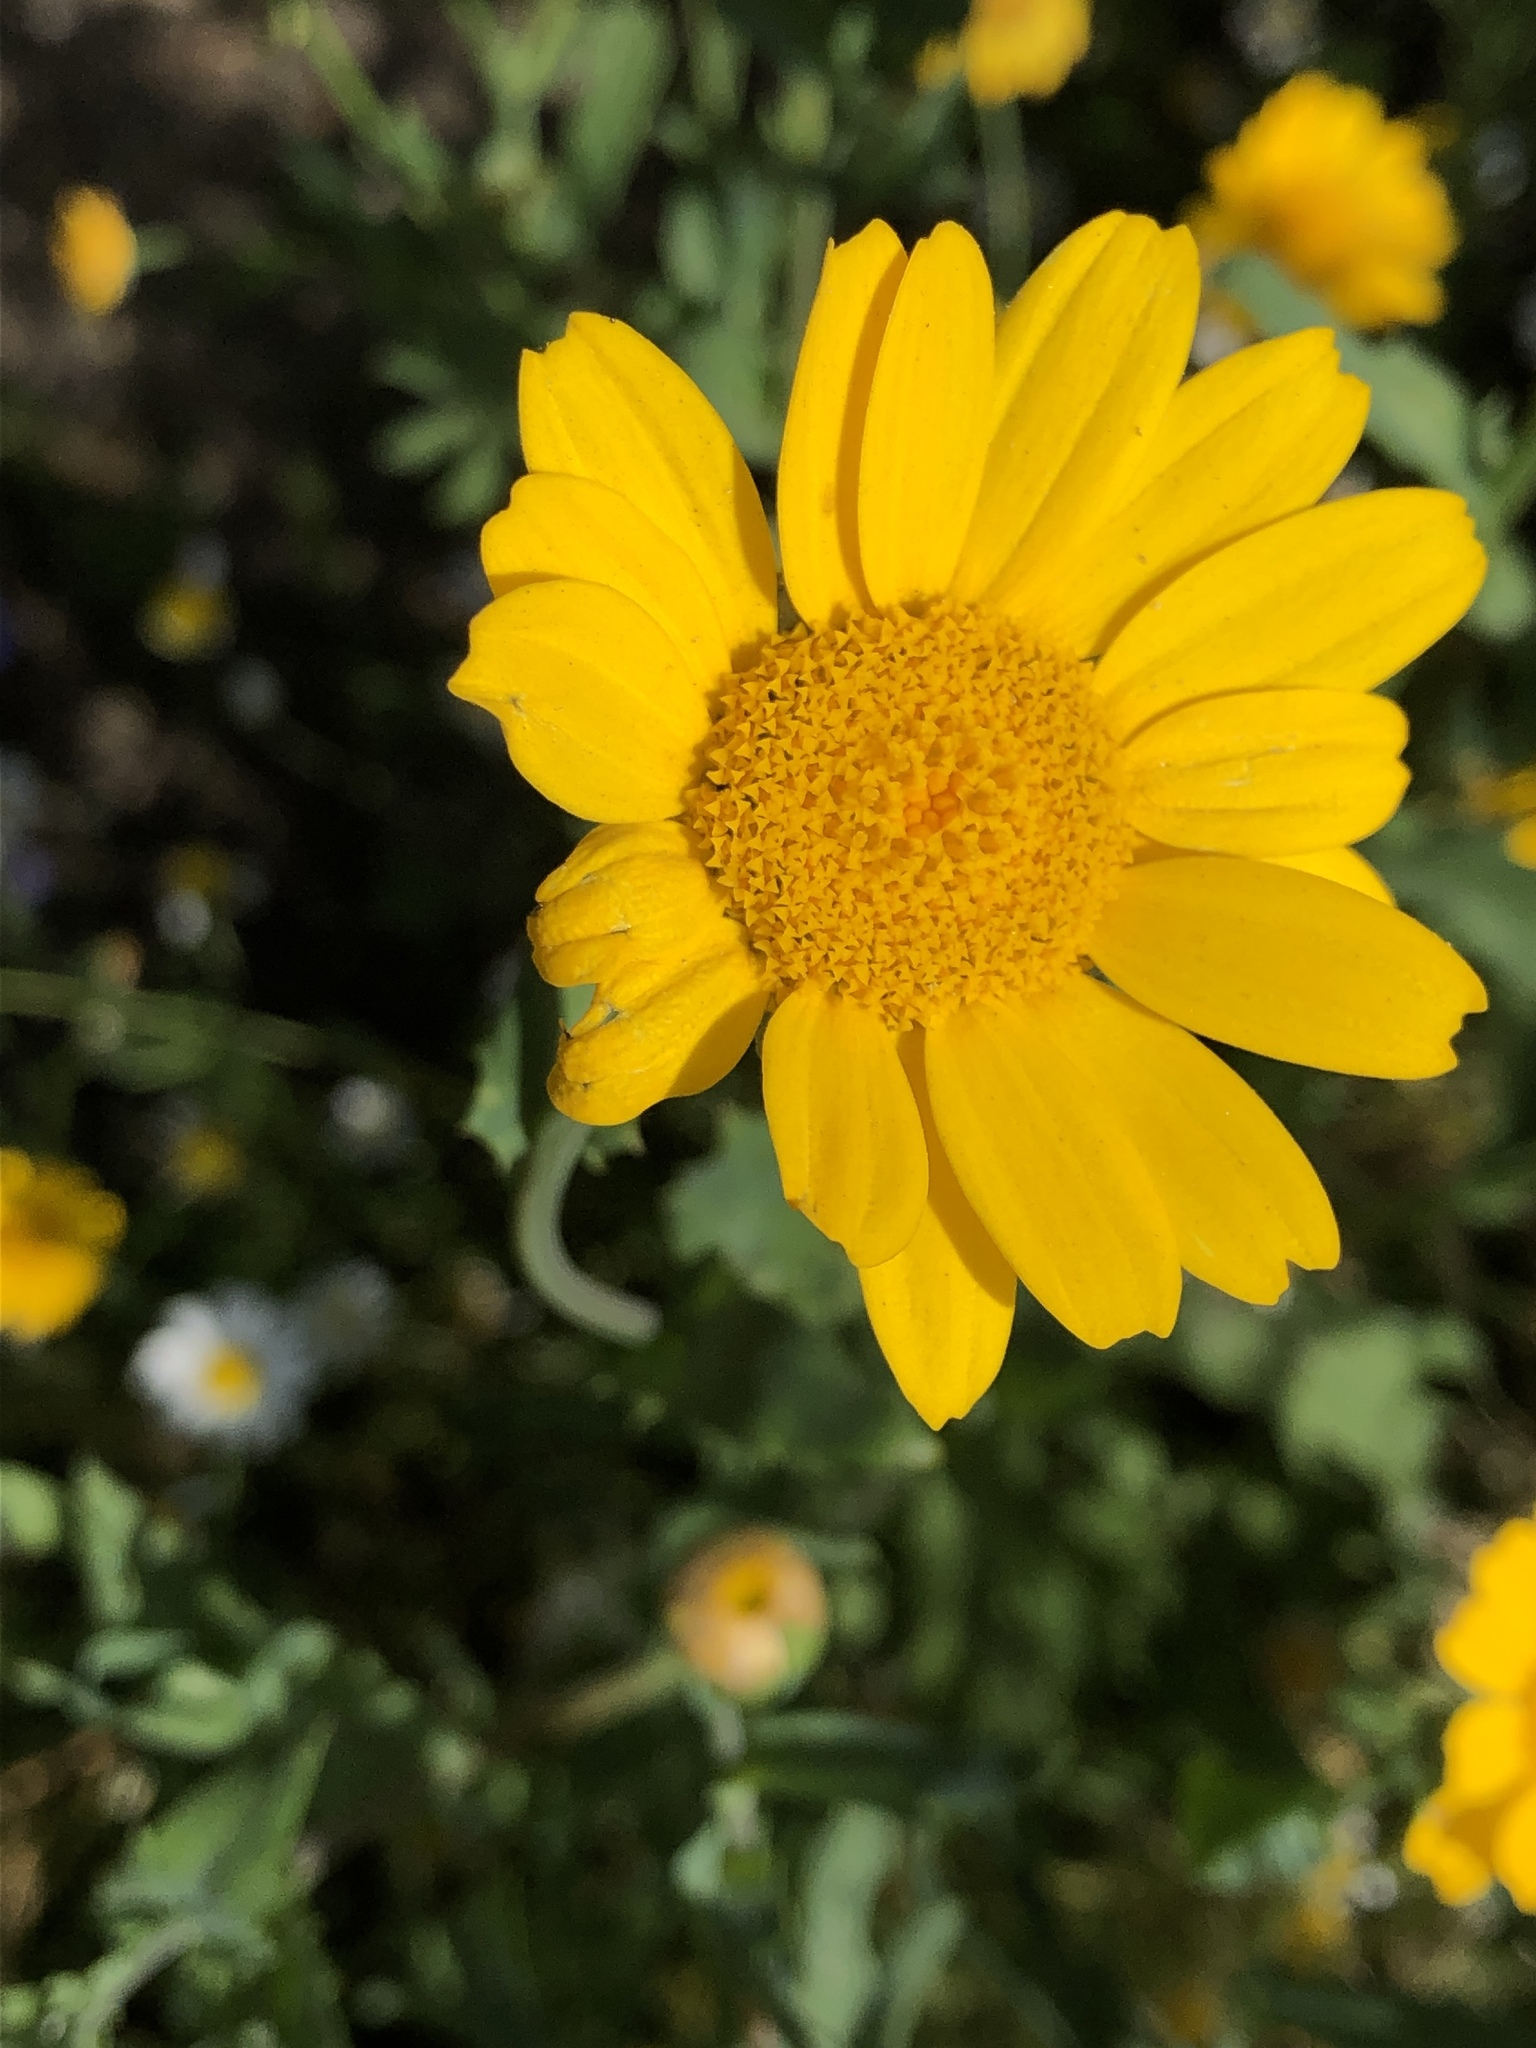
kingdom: Plantae
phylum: Tracheophyta
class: Magnoliopsida
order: Asterales
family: Asteraceae
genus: Glebionis
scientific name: Glebionis segetum
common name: Corndaisy
